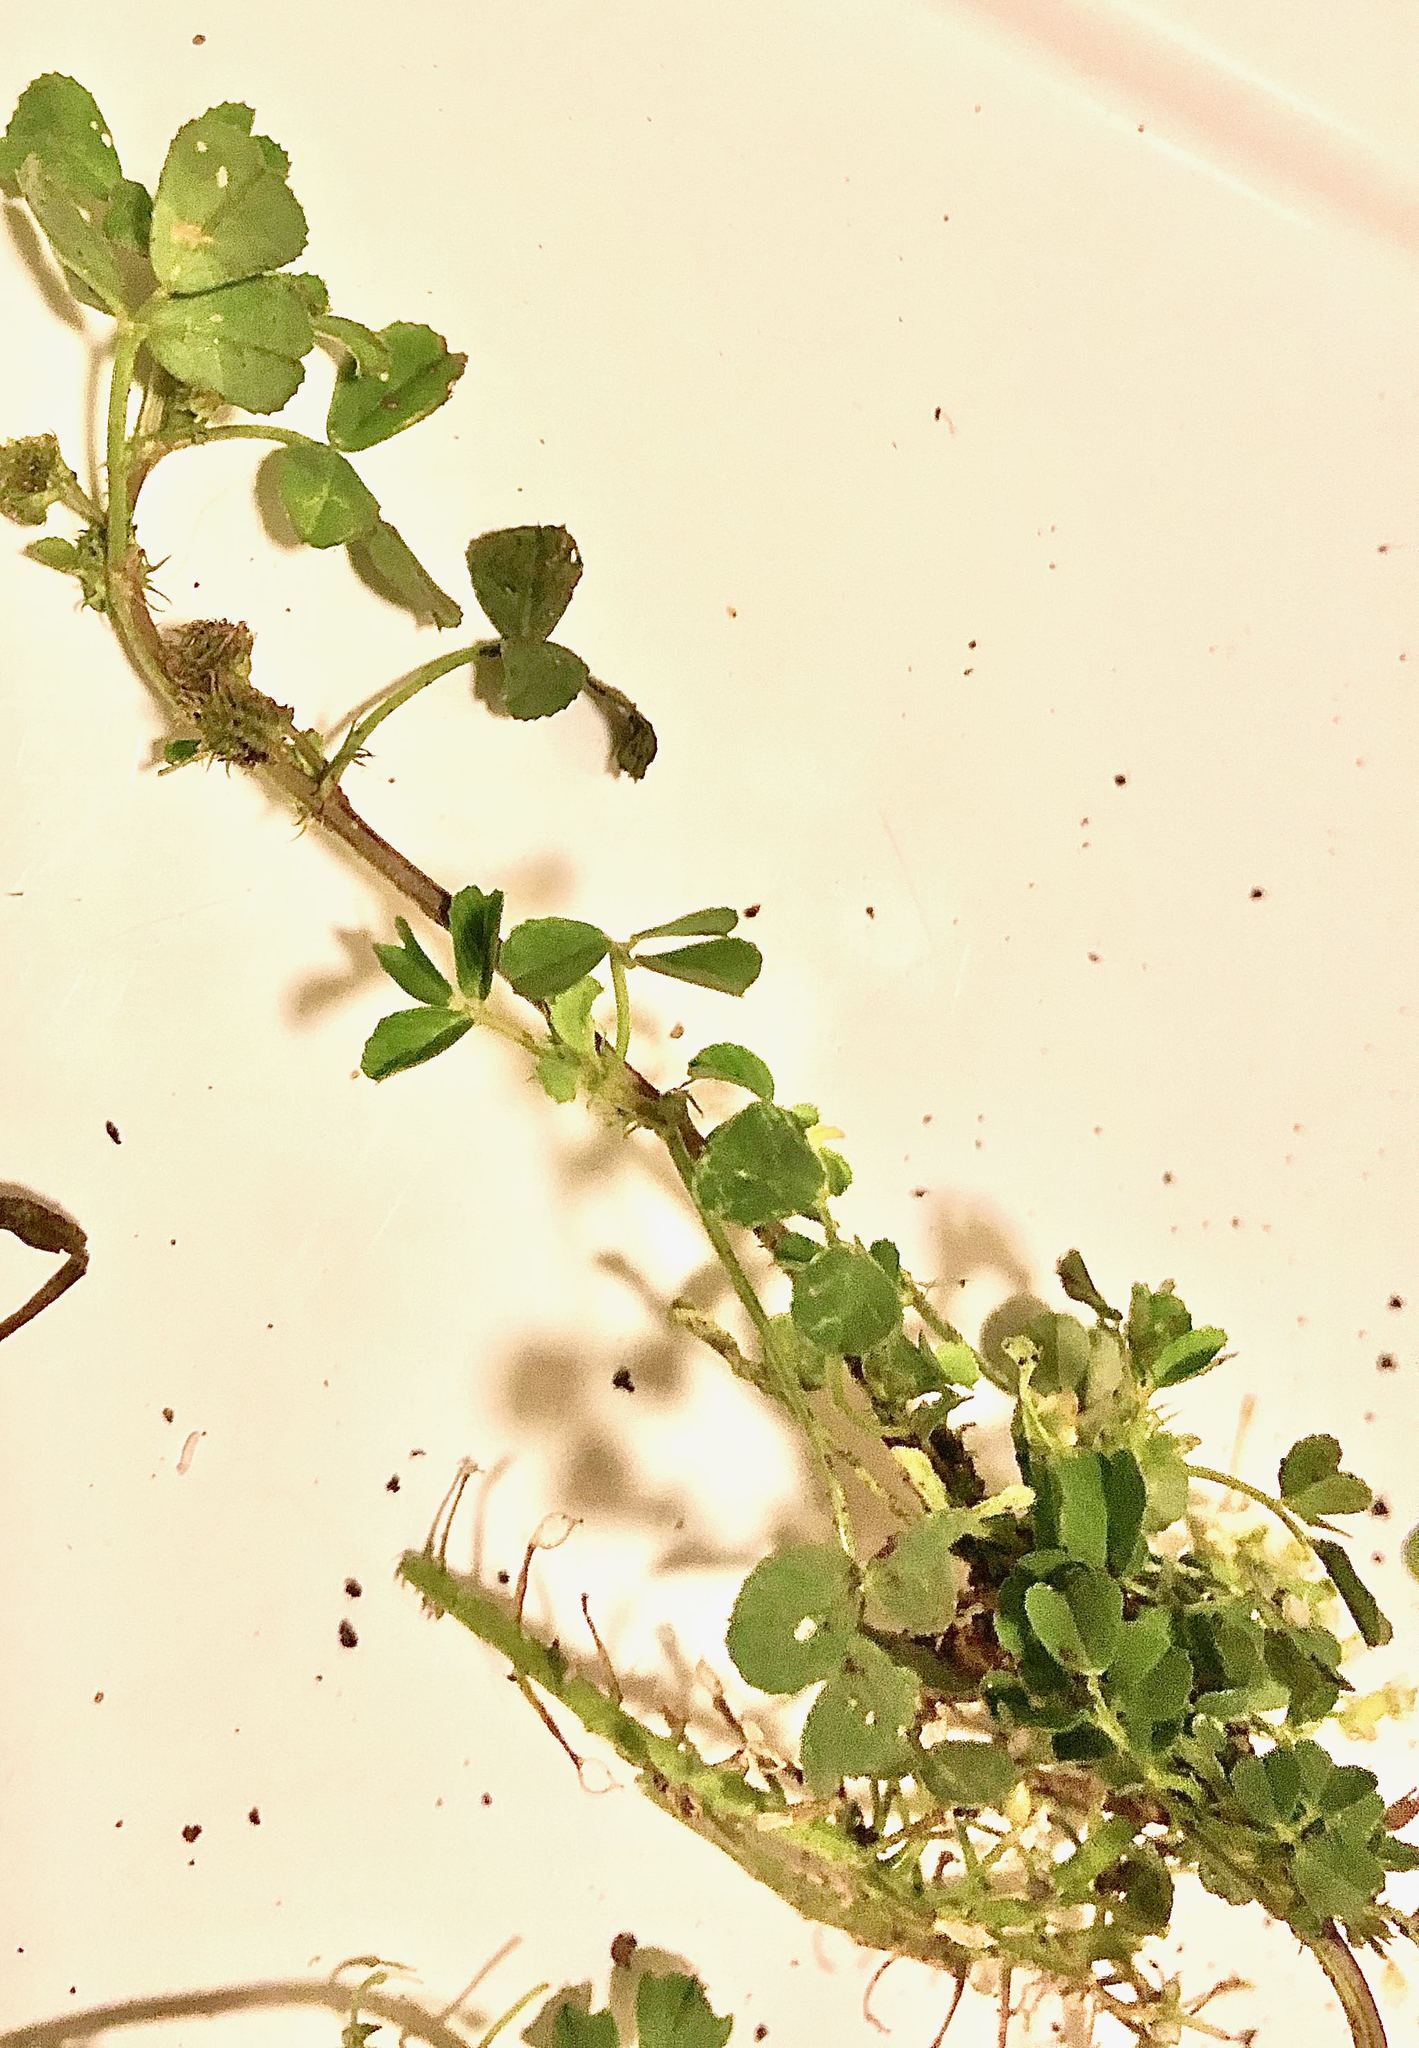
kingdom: Plantae
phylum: Tracheophyta
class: Magnoliopsida
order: Fabales
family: Fabaceae
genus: Medicago
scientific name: Medicago polymorpha
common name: Burclover
